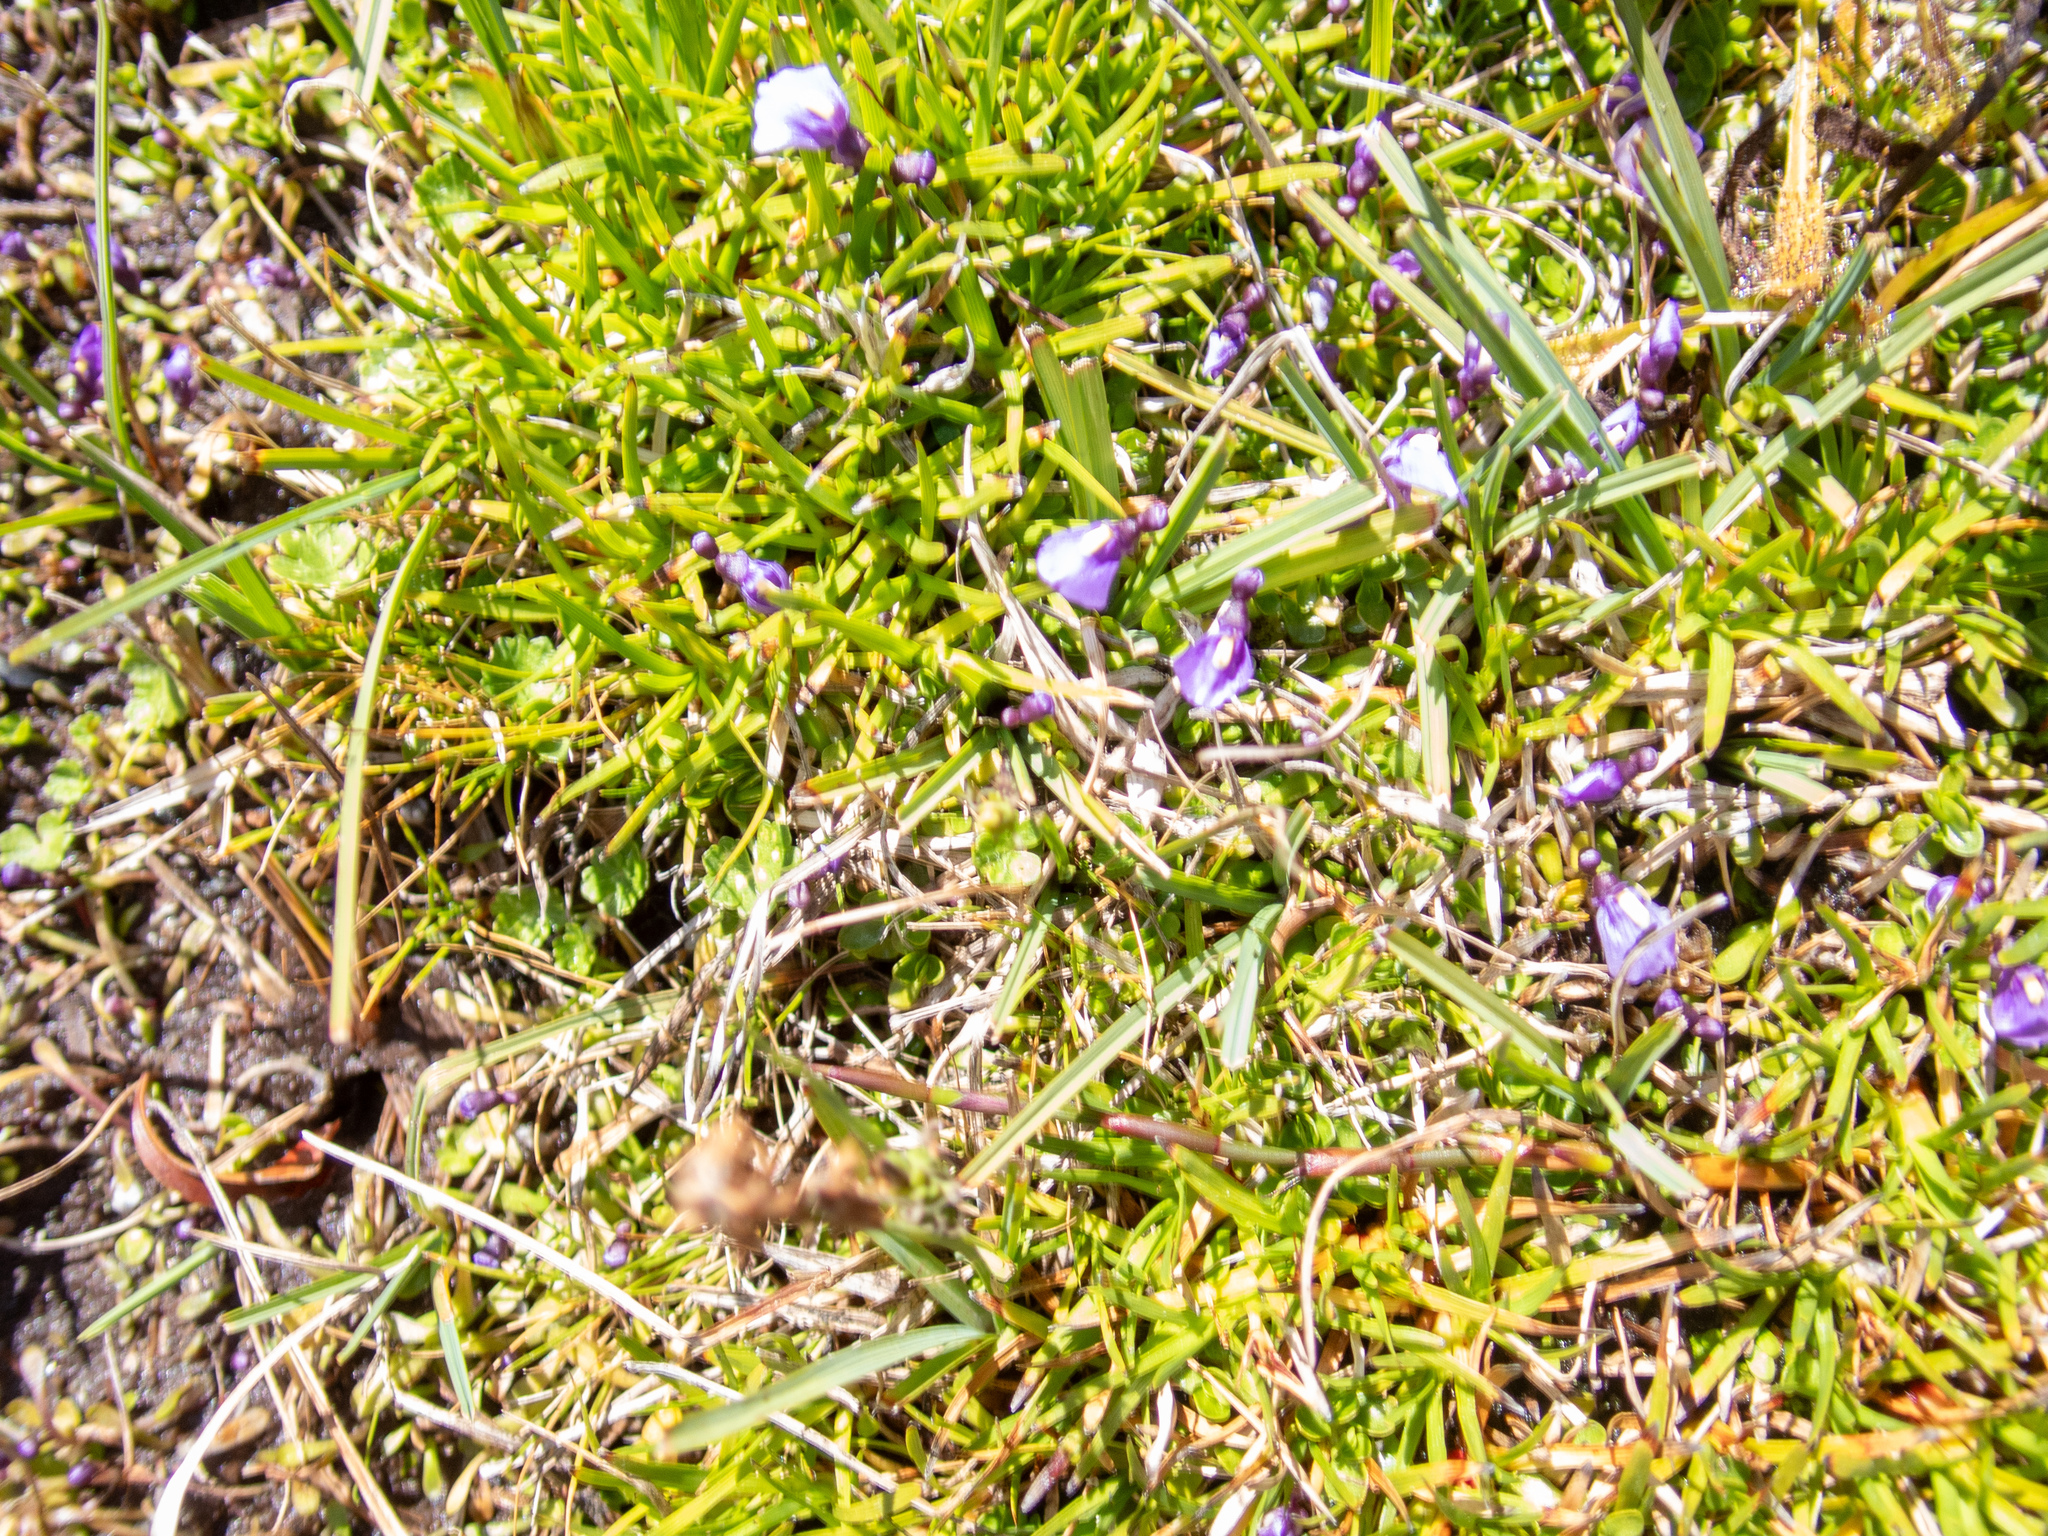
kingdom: Plantae
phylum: Tracheophyta
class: Magnoliopsida
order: Lamiales
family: Lentibulariaceae
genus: Utricularia
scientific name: Utricularia dichotoma
